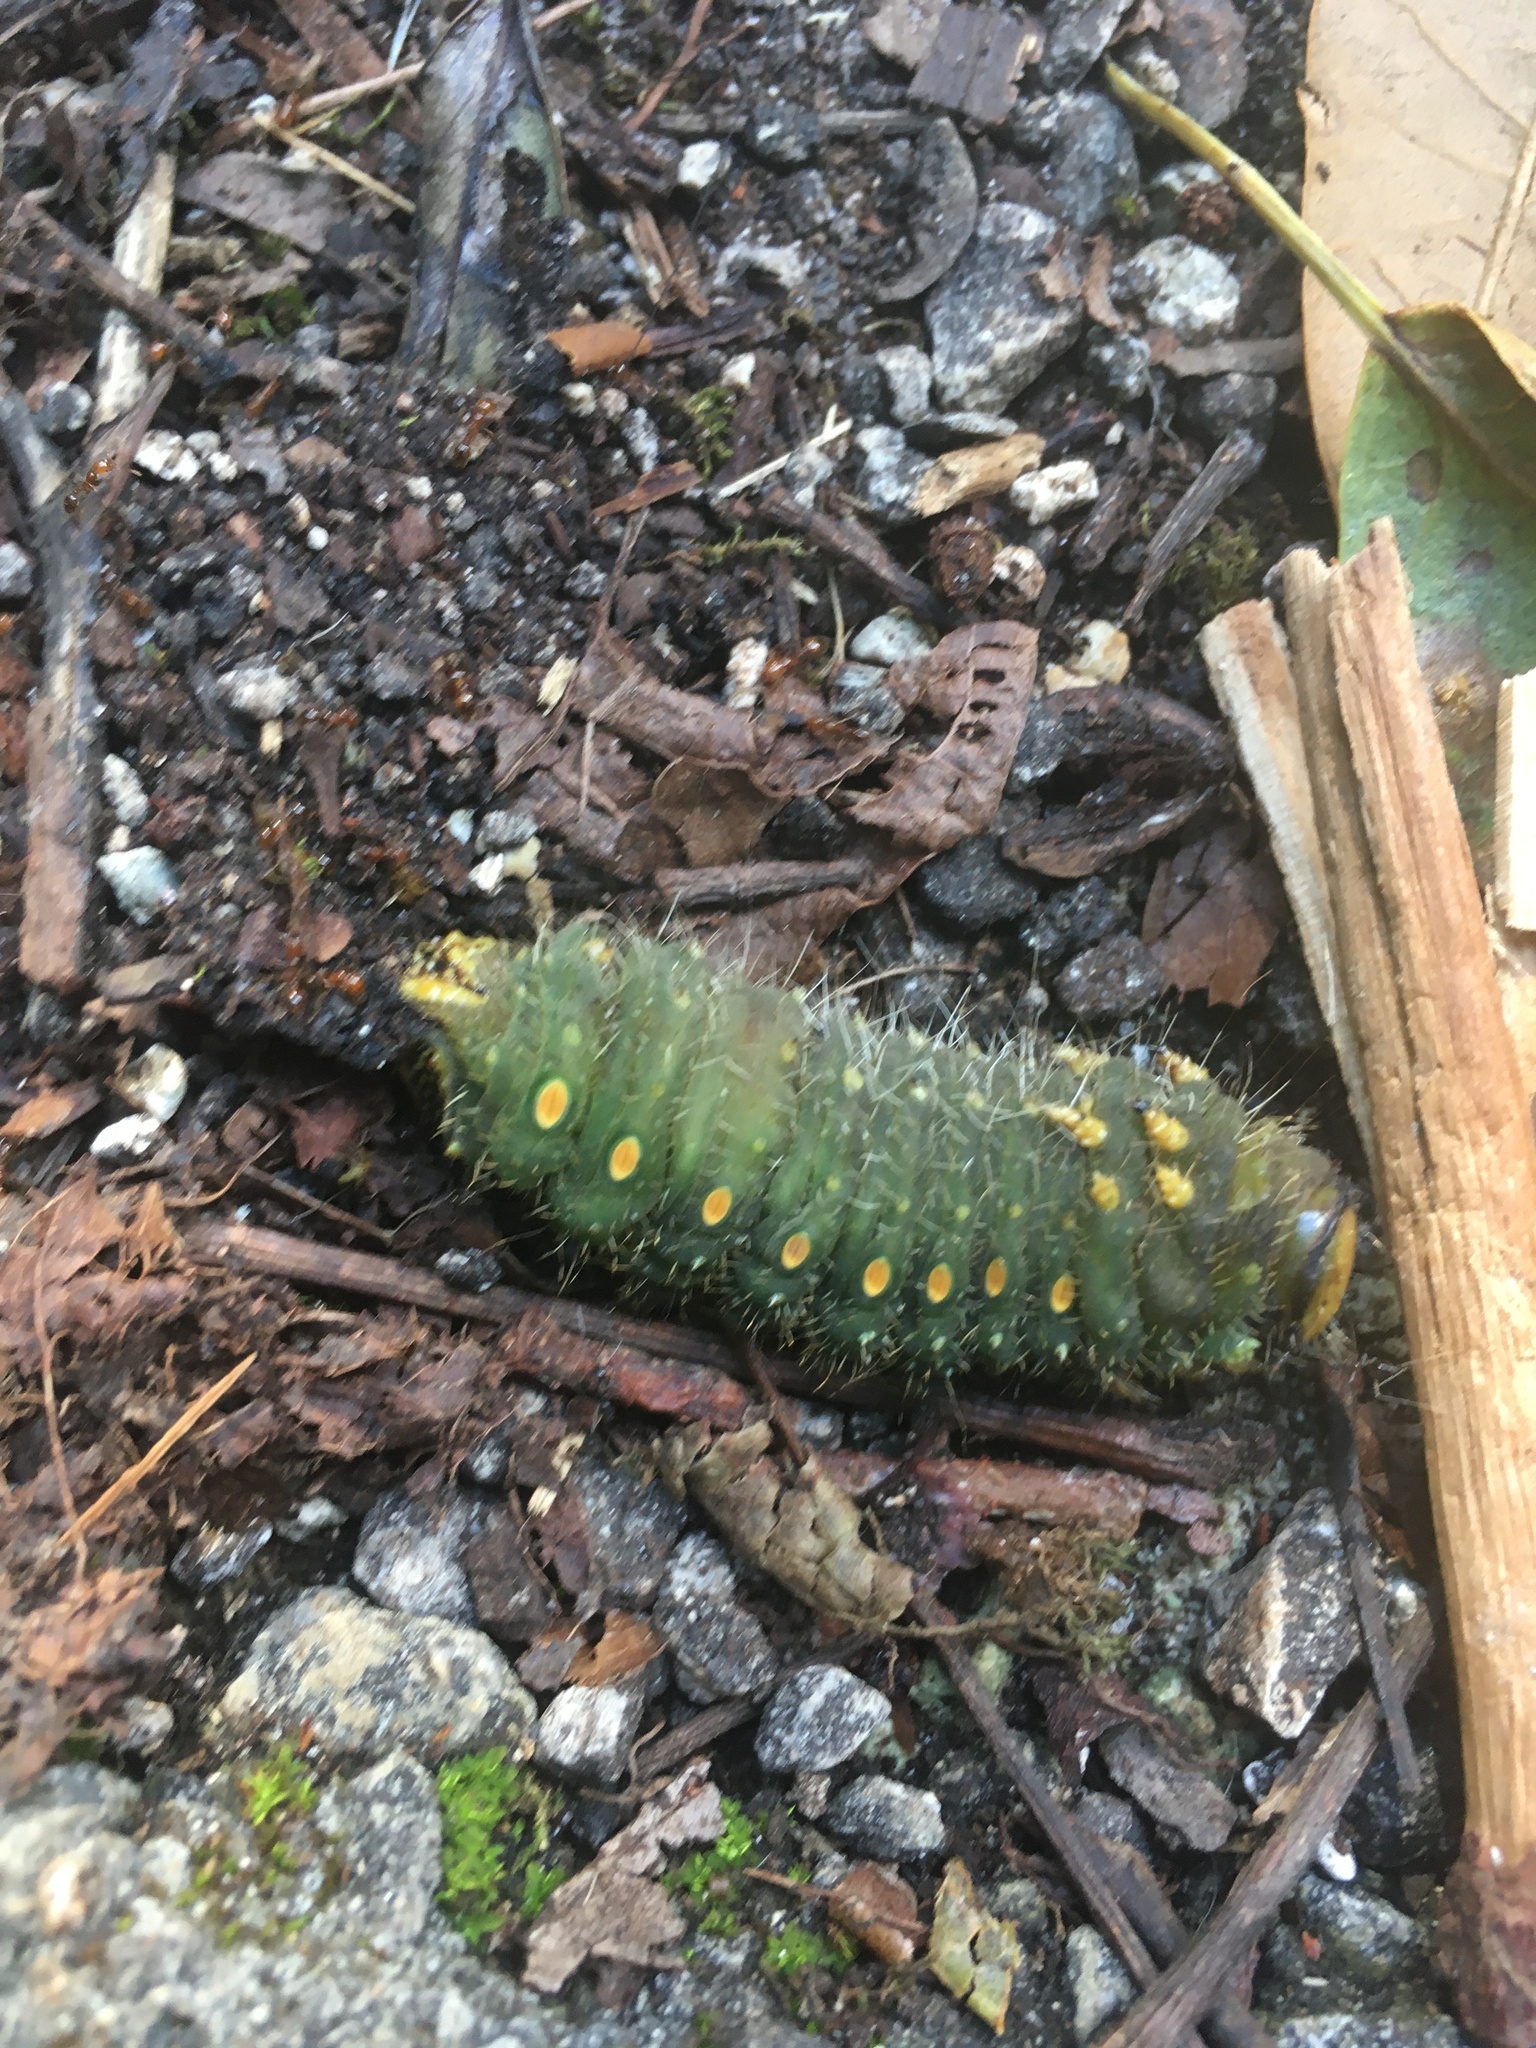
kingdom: Animalia
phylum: Arthropoda
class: Insecta
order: Lepidoptera
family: Saturniidae
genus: Eacles
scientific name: Eacles imperialis
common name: Imperial moth
